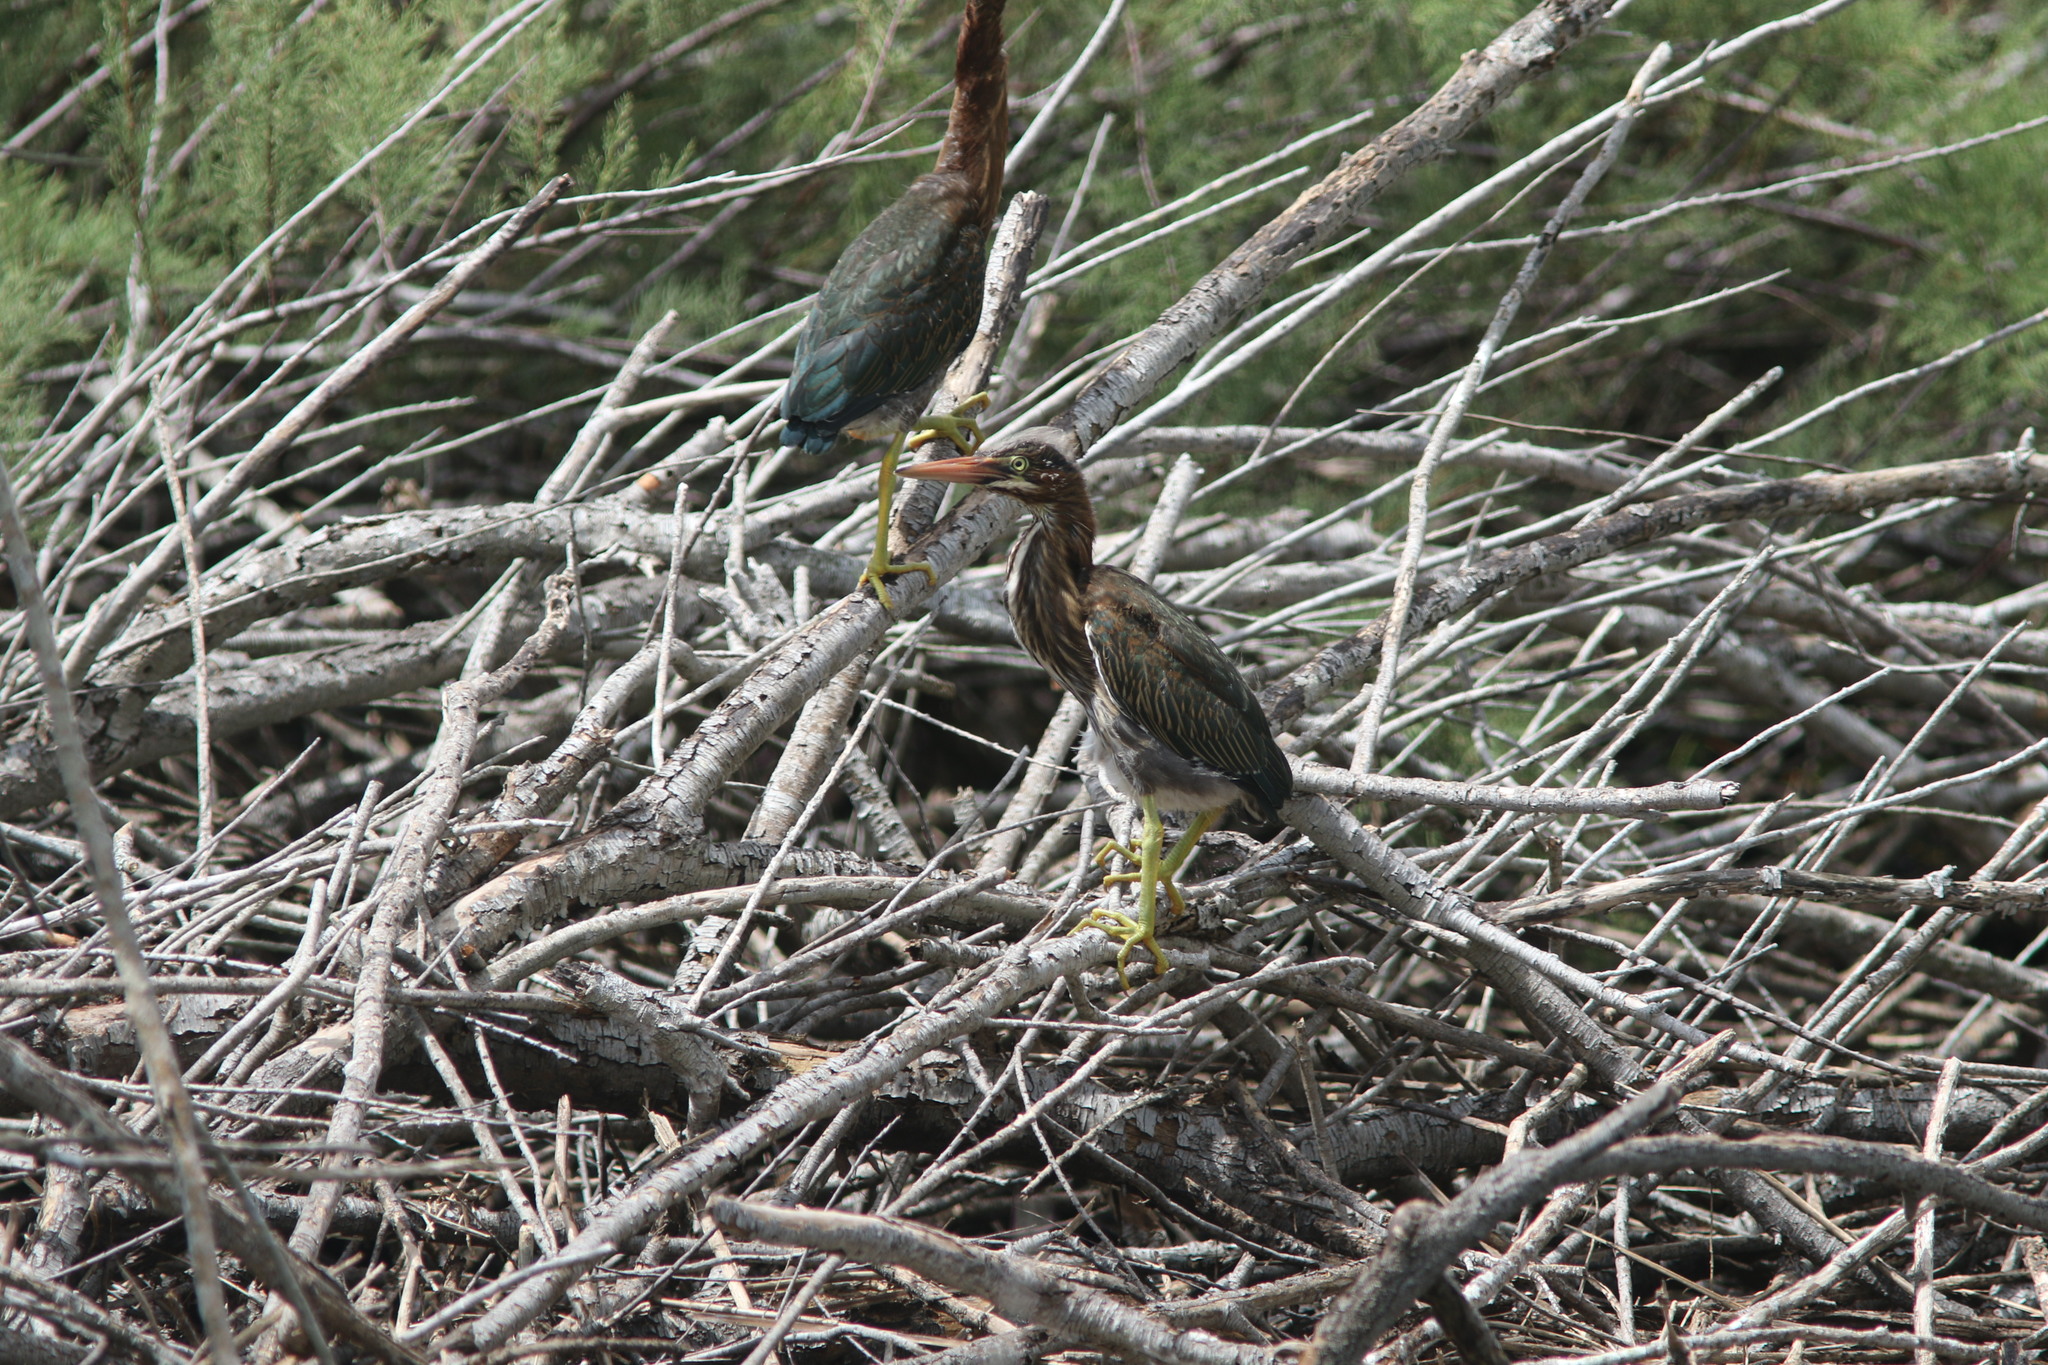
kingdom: Animalia
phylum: Chordata
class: Aves
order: Pelecaniformes
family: Ardeidae
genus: Butorides
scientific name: Butorides virescens
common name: Green heron
